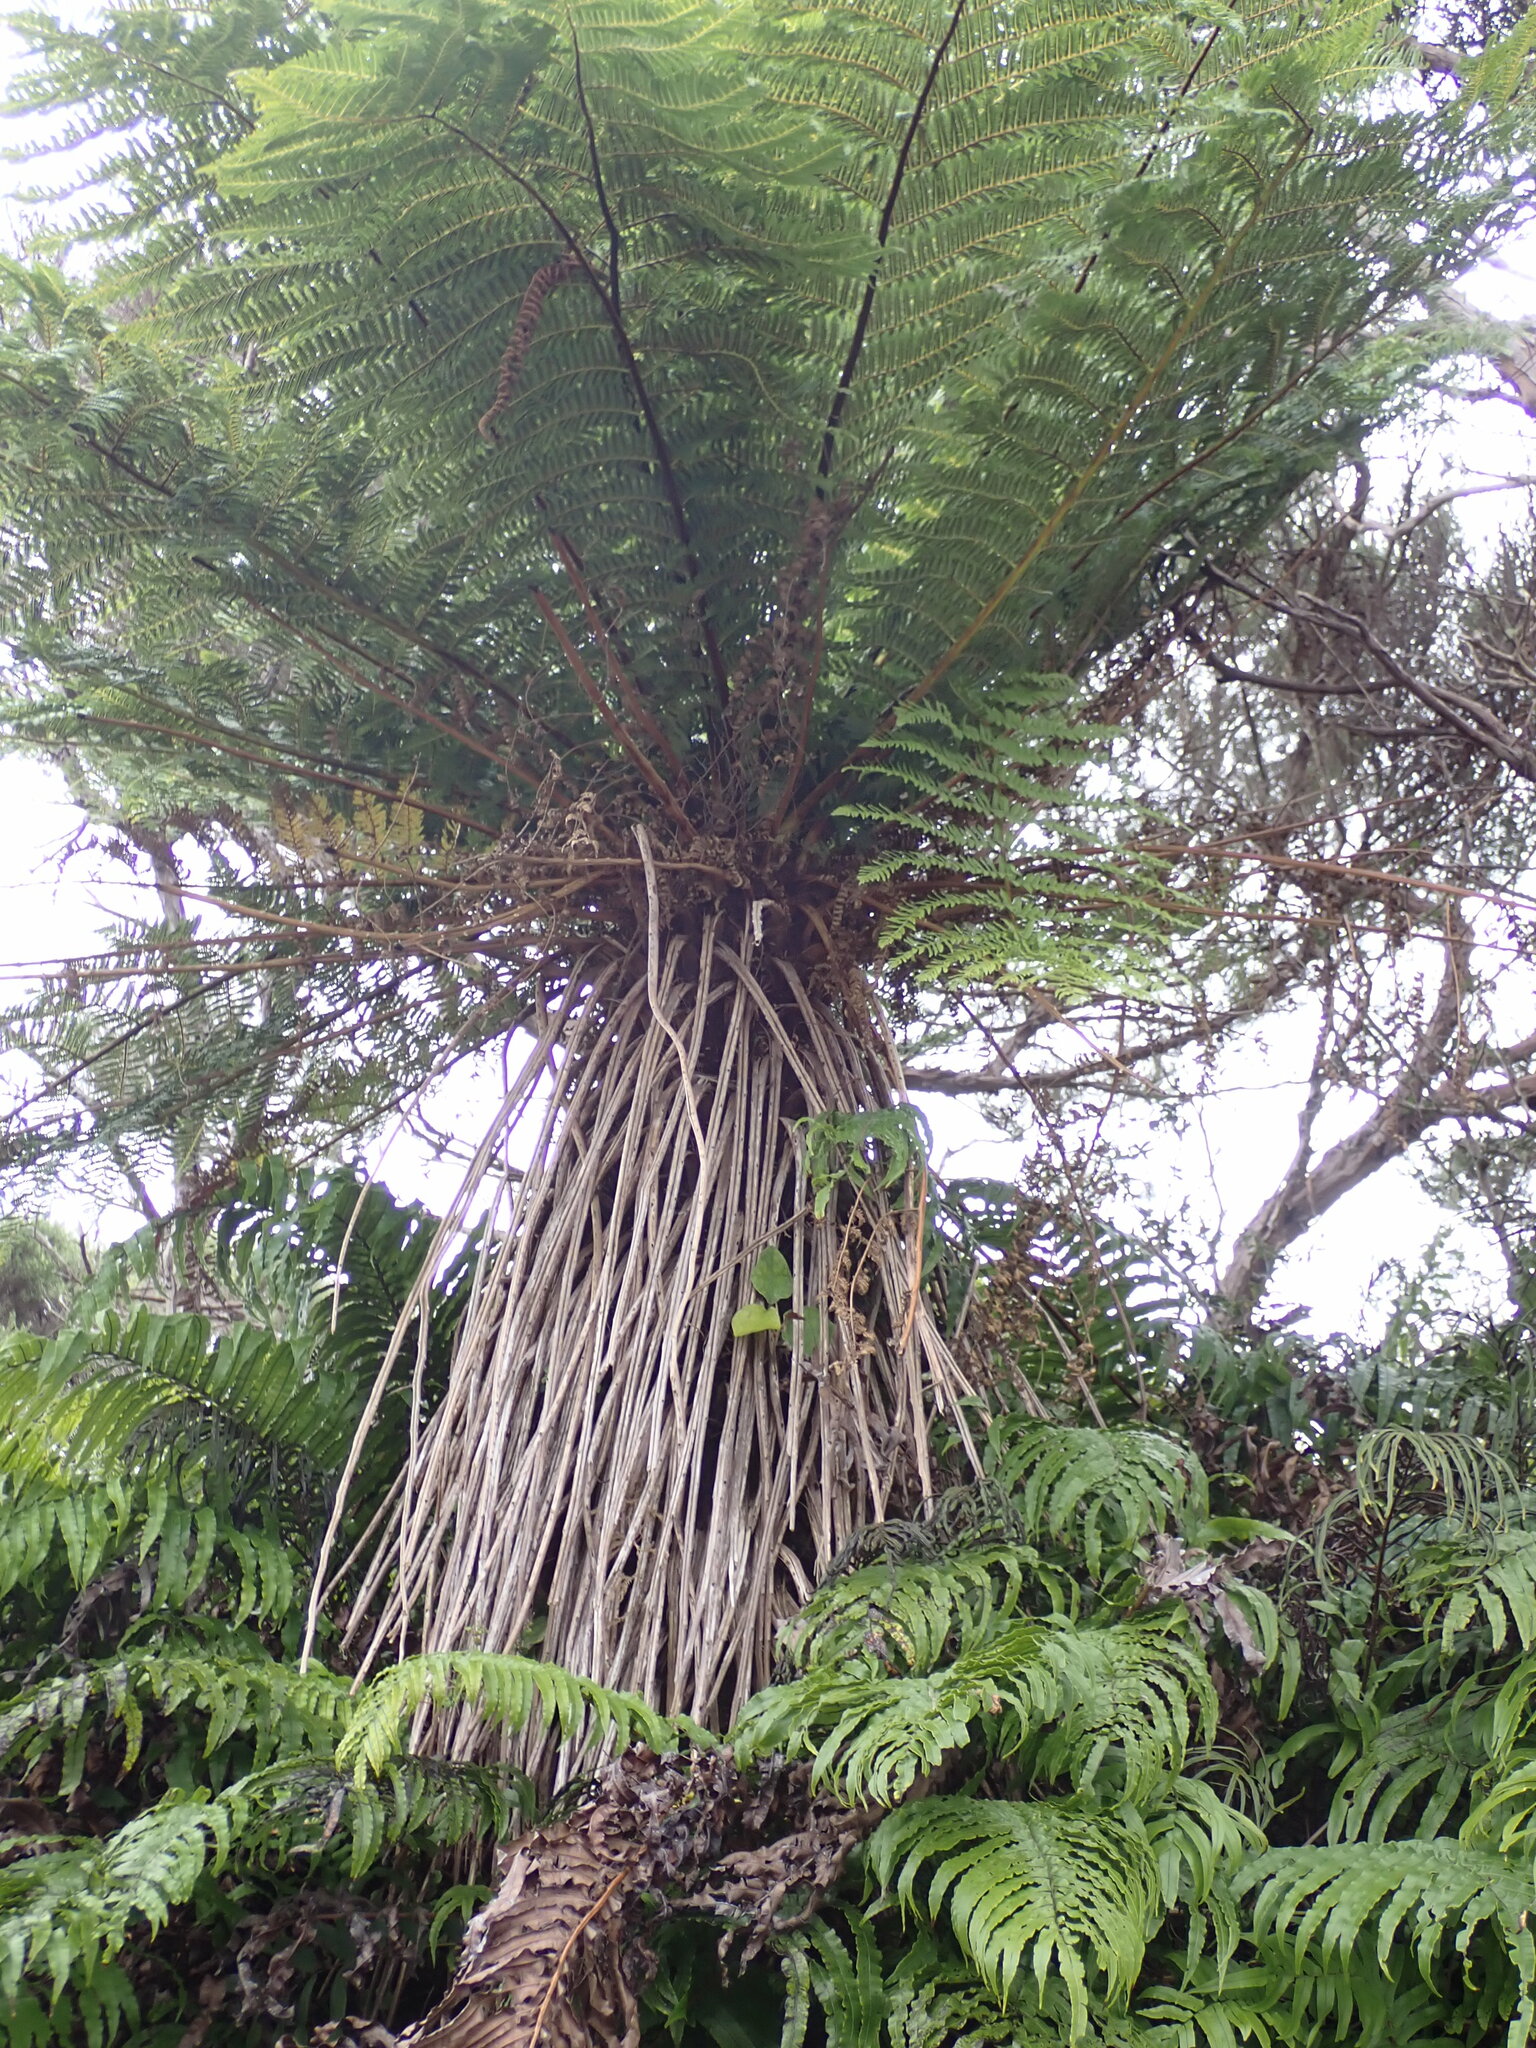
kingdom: Plantae
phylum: Tracheophyta
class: Polypodiopsida
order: Cyatheales
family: Cyatheaceae
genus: Alsophila
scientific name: Alsophila smithii
